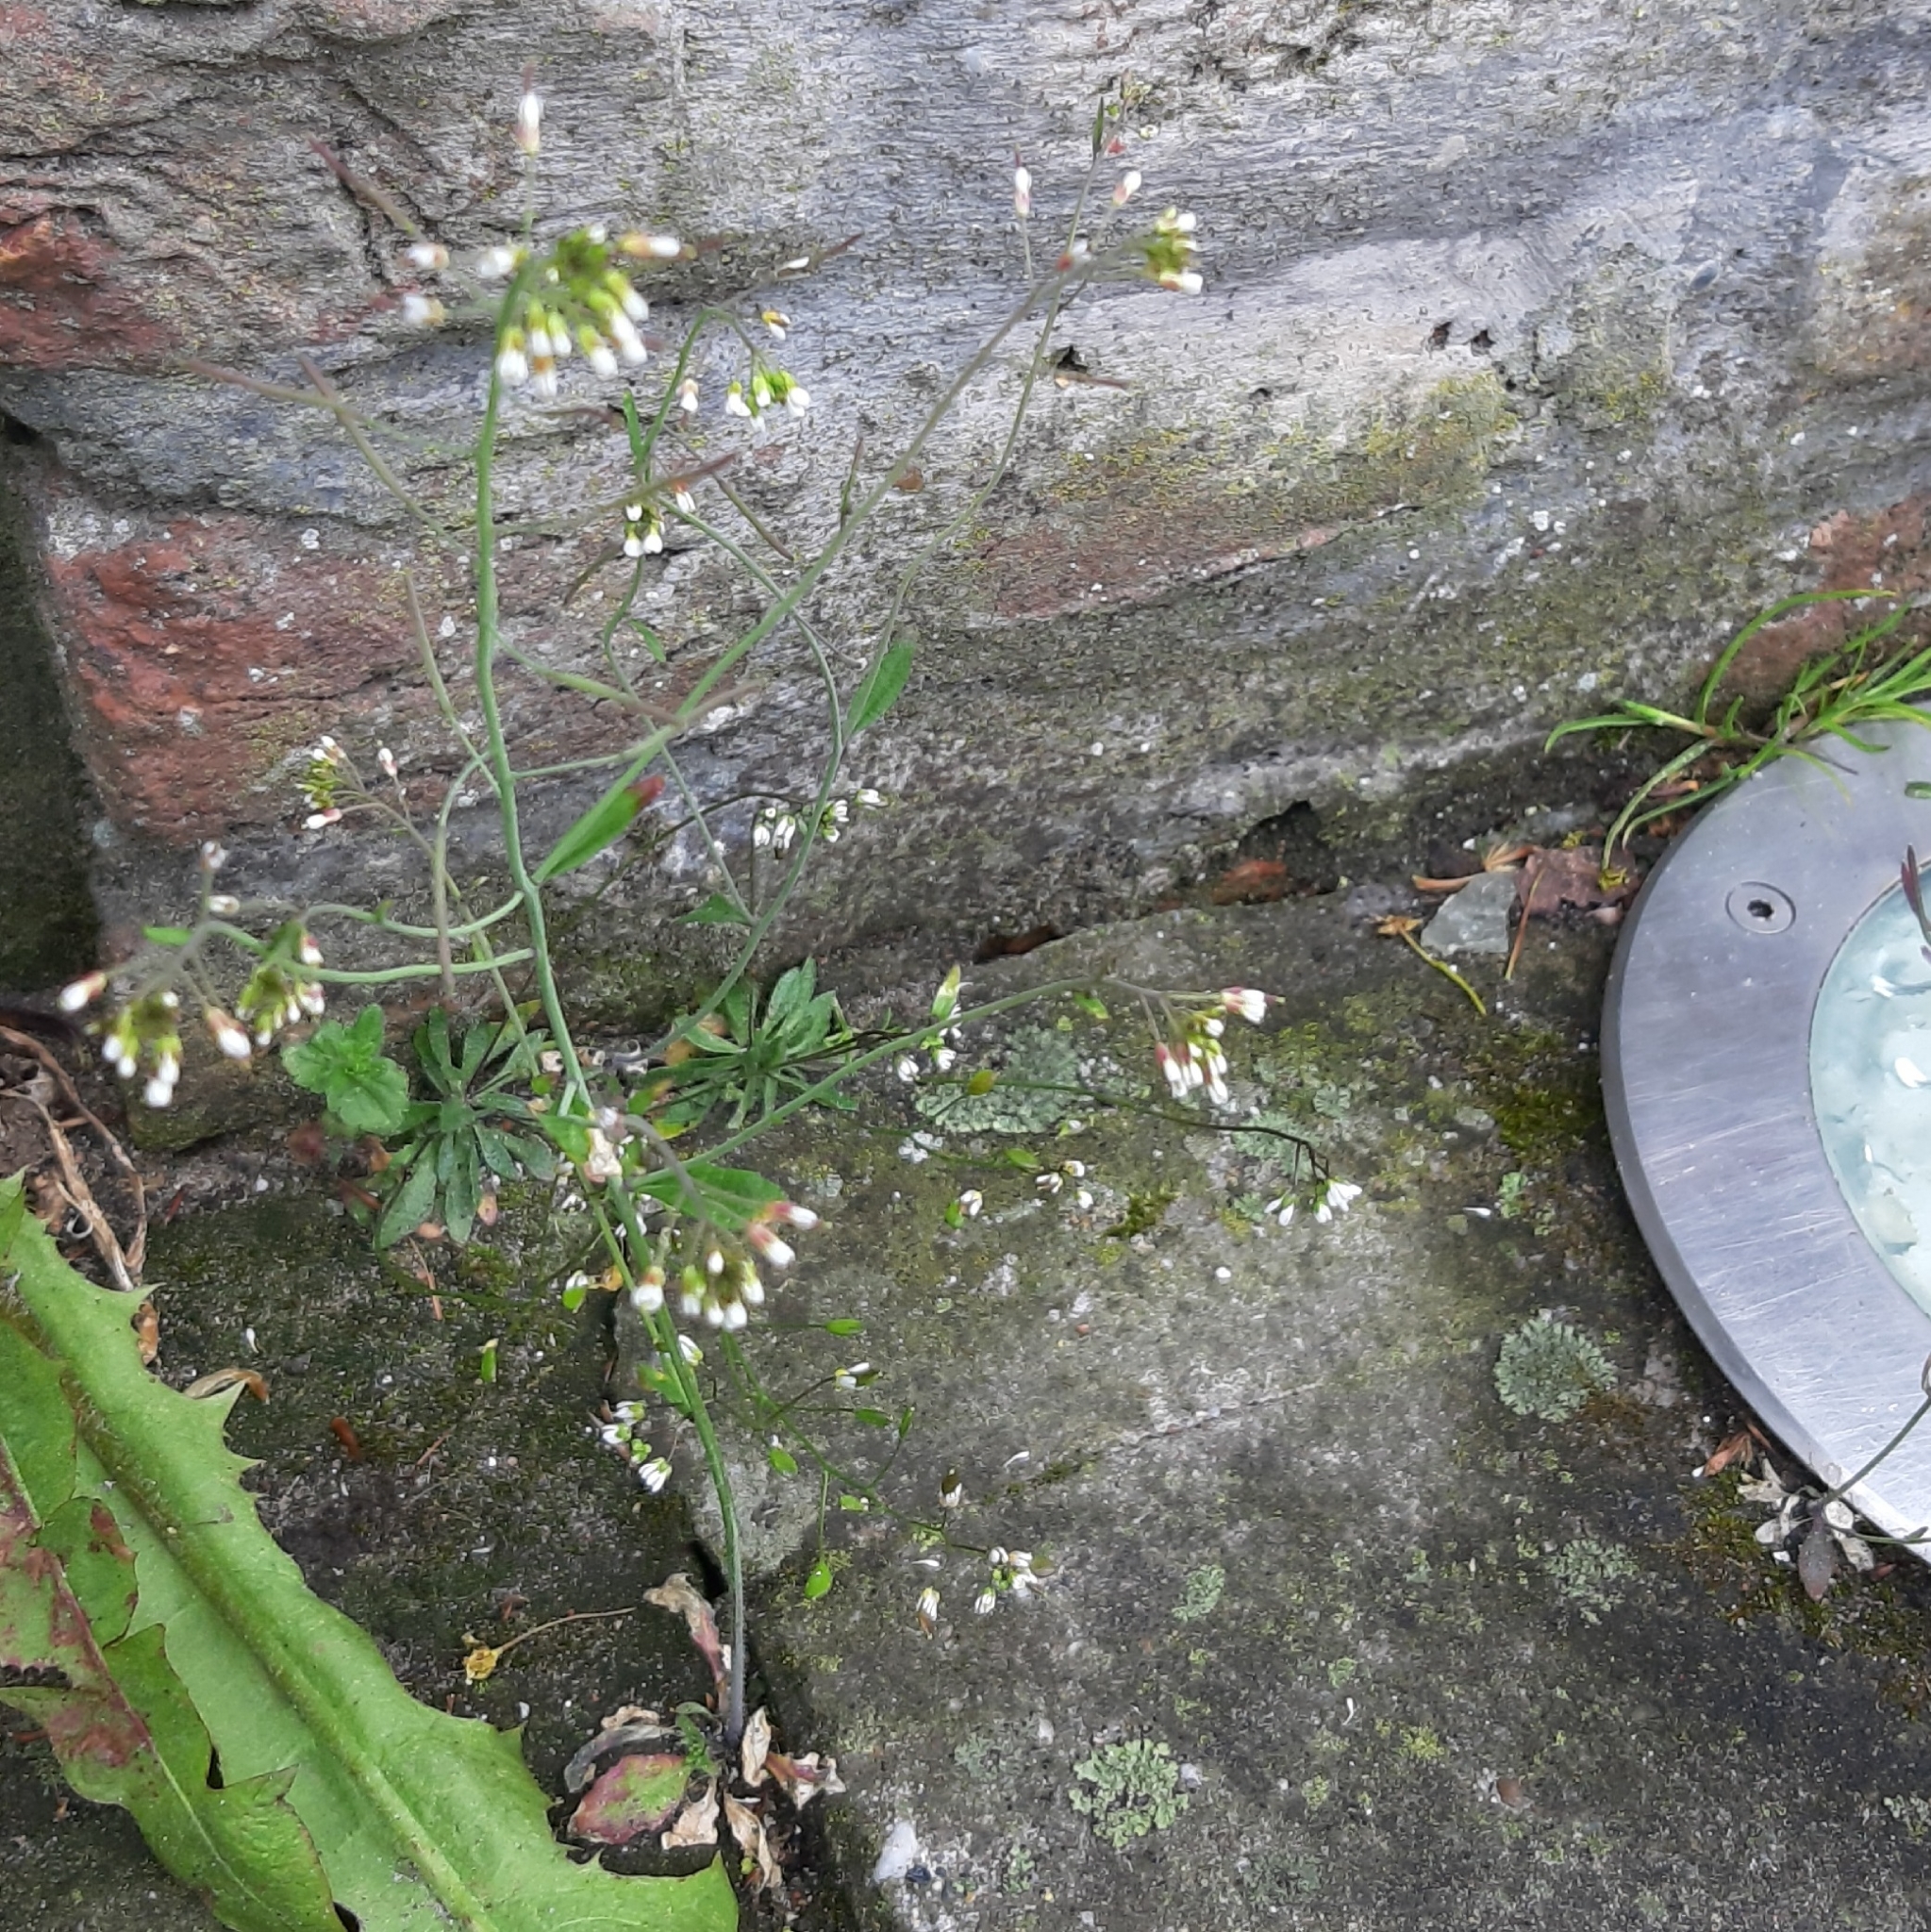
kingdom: Plantae
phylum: Tracheophyta
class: Magnoliopsida
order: Brassicales
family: Brassicaceae
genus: Arabidopsis
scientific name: Arabidopsis thaliana
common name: Thale cress
